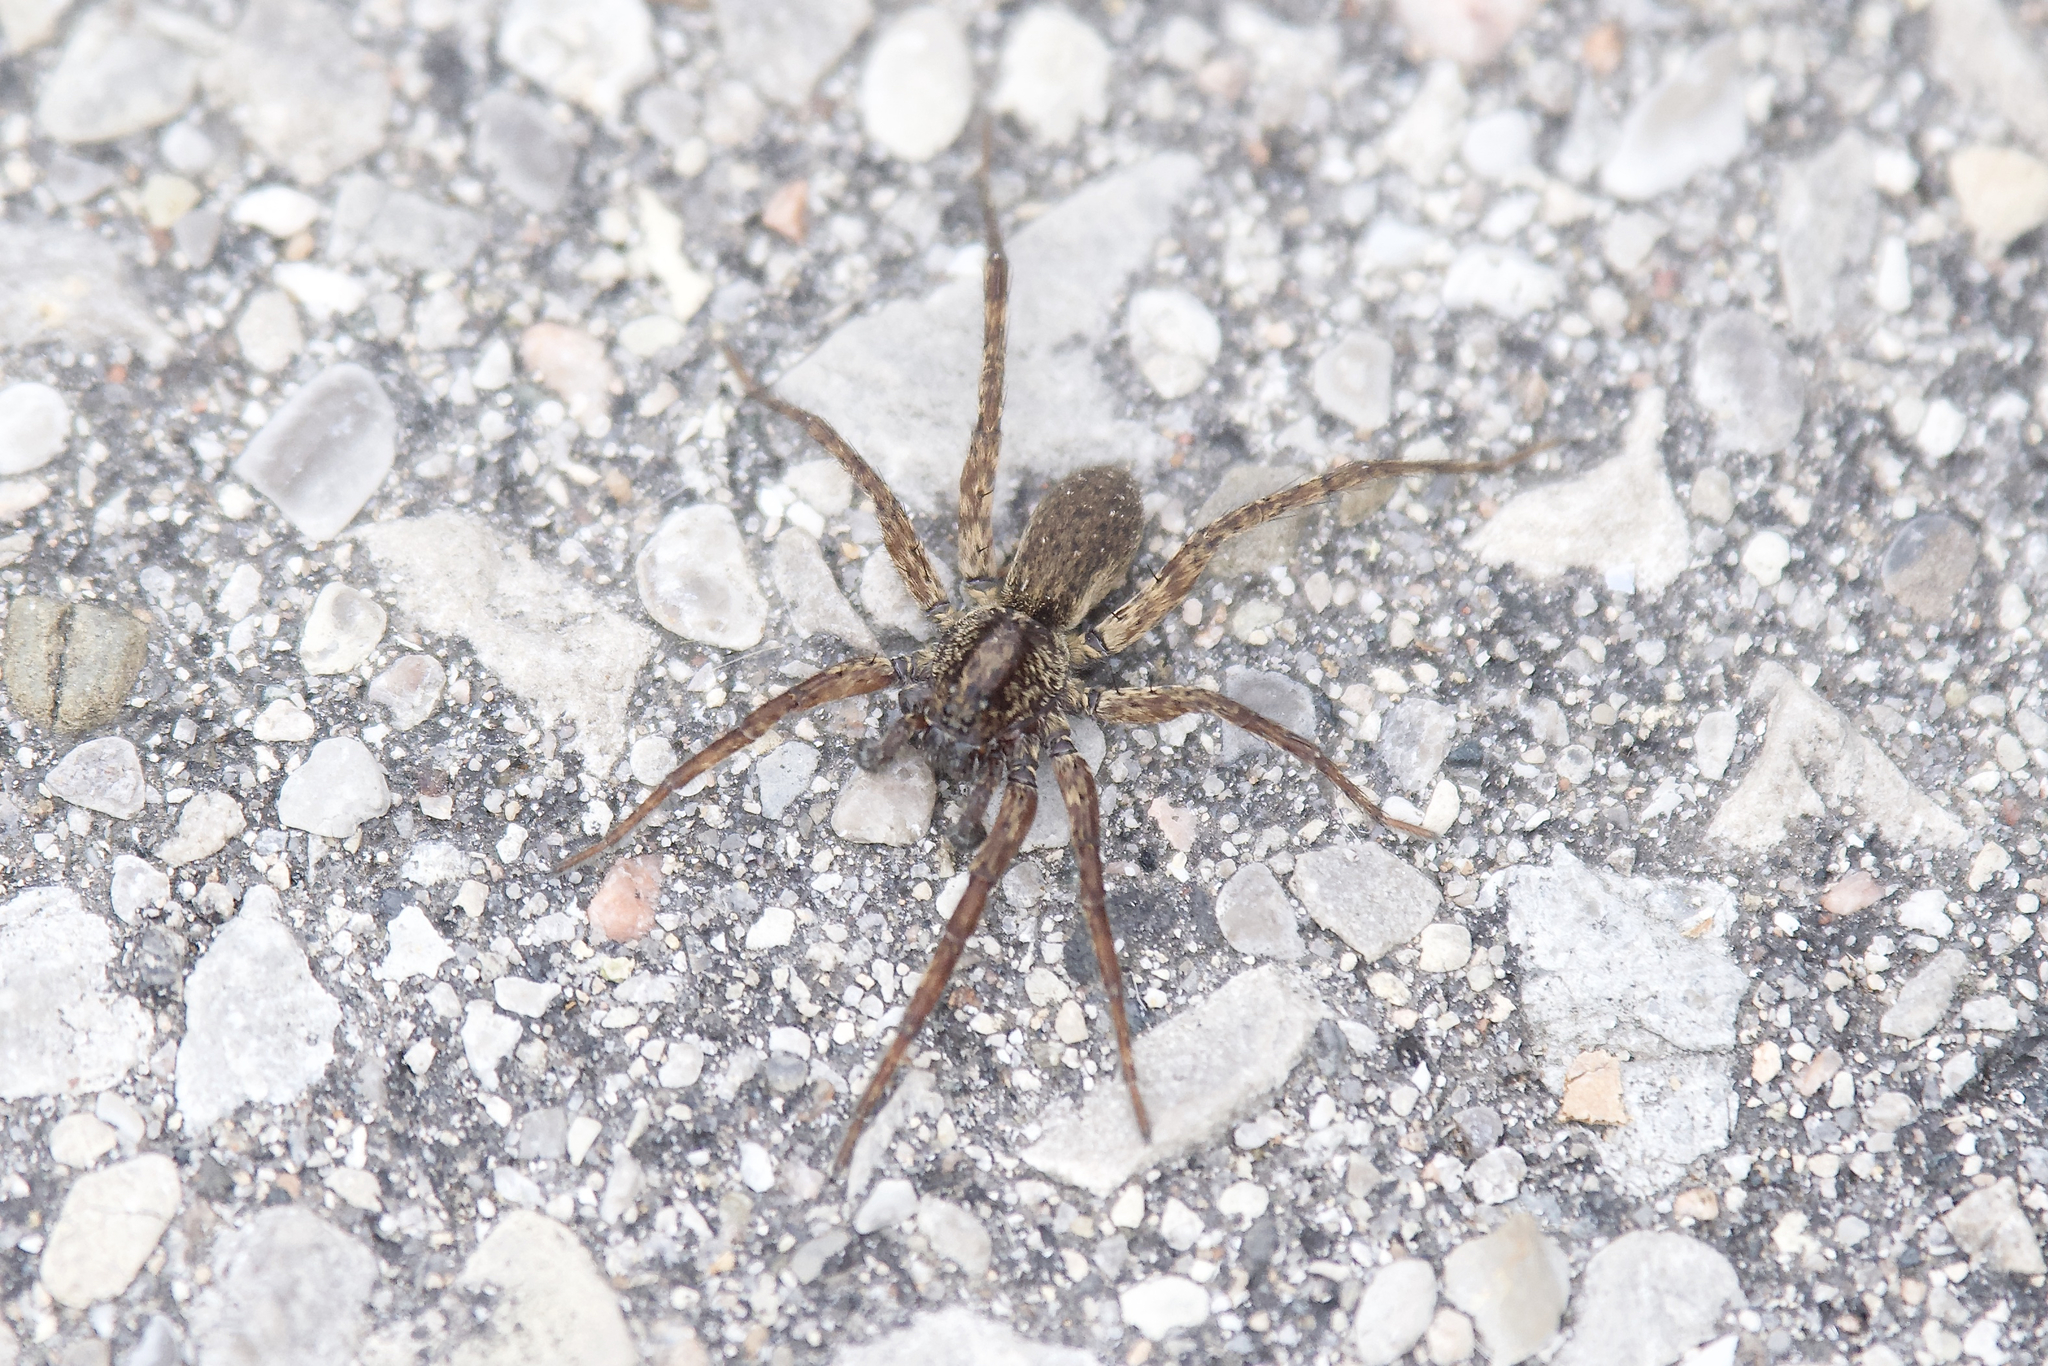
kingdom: Animalia
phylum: Arthropoda
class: Arachnida
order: Araneae
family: Lycosidae
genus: Varacosa
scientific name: Varacosa avara
